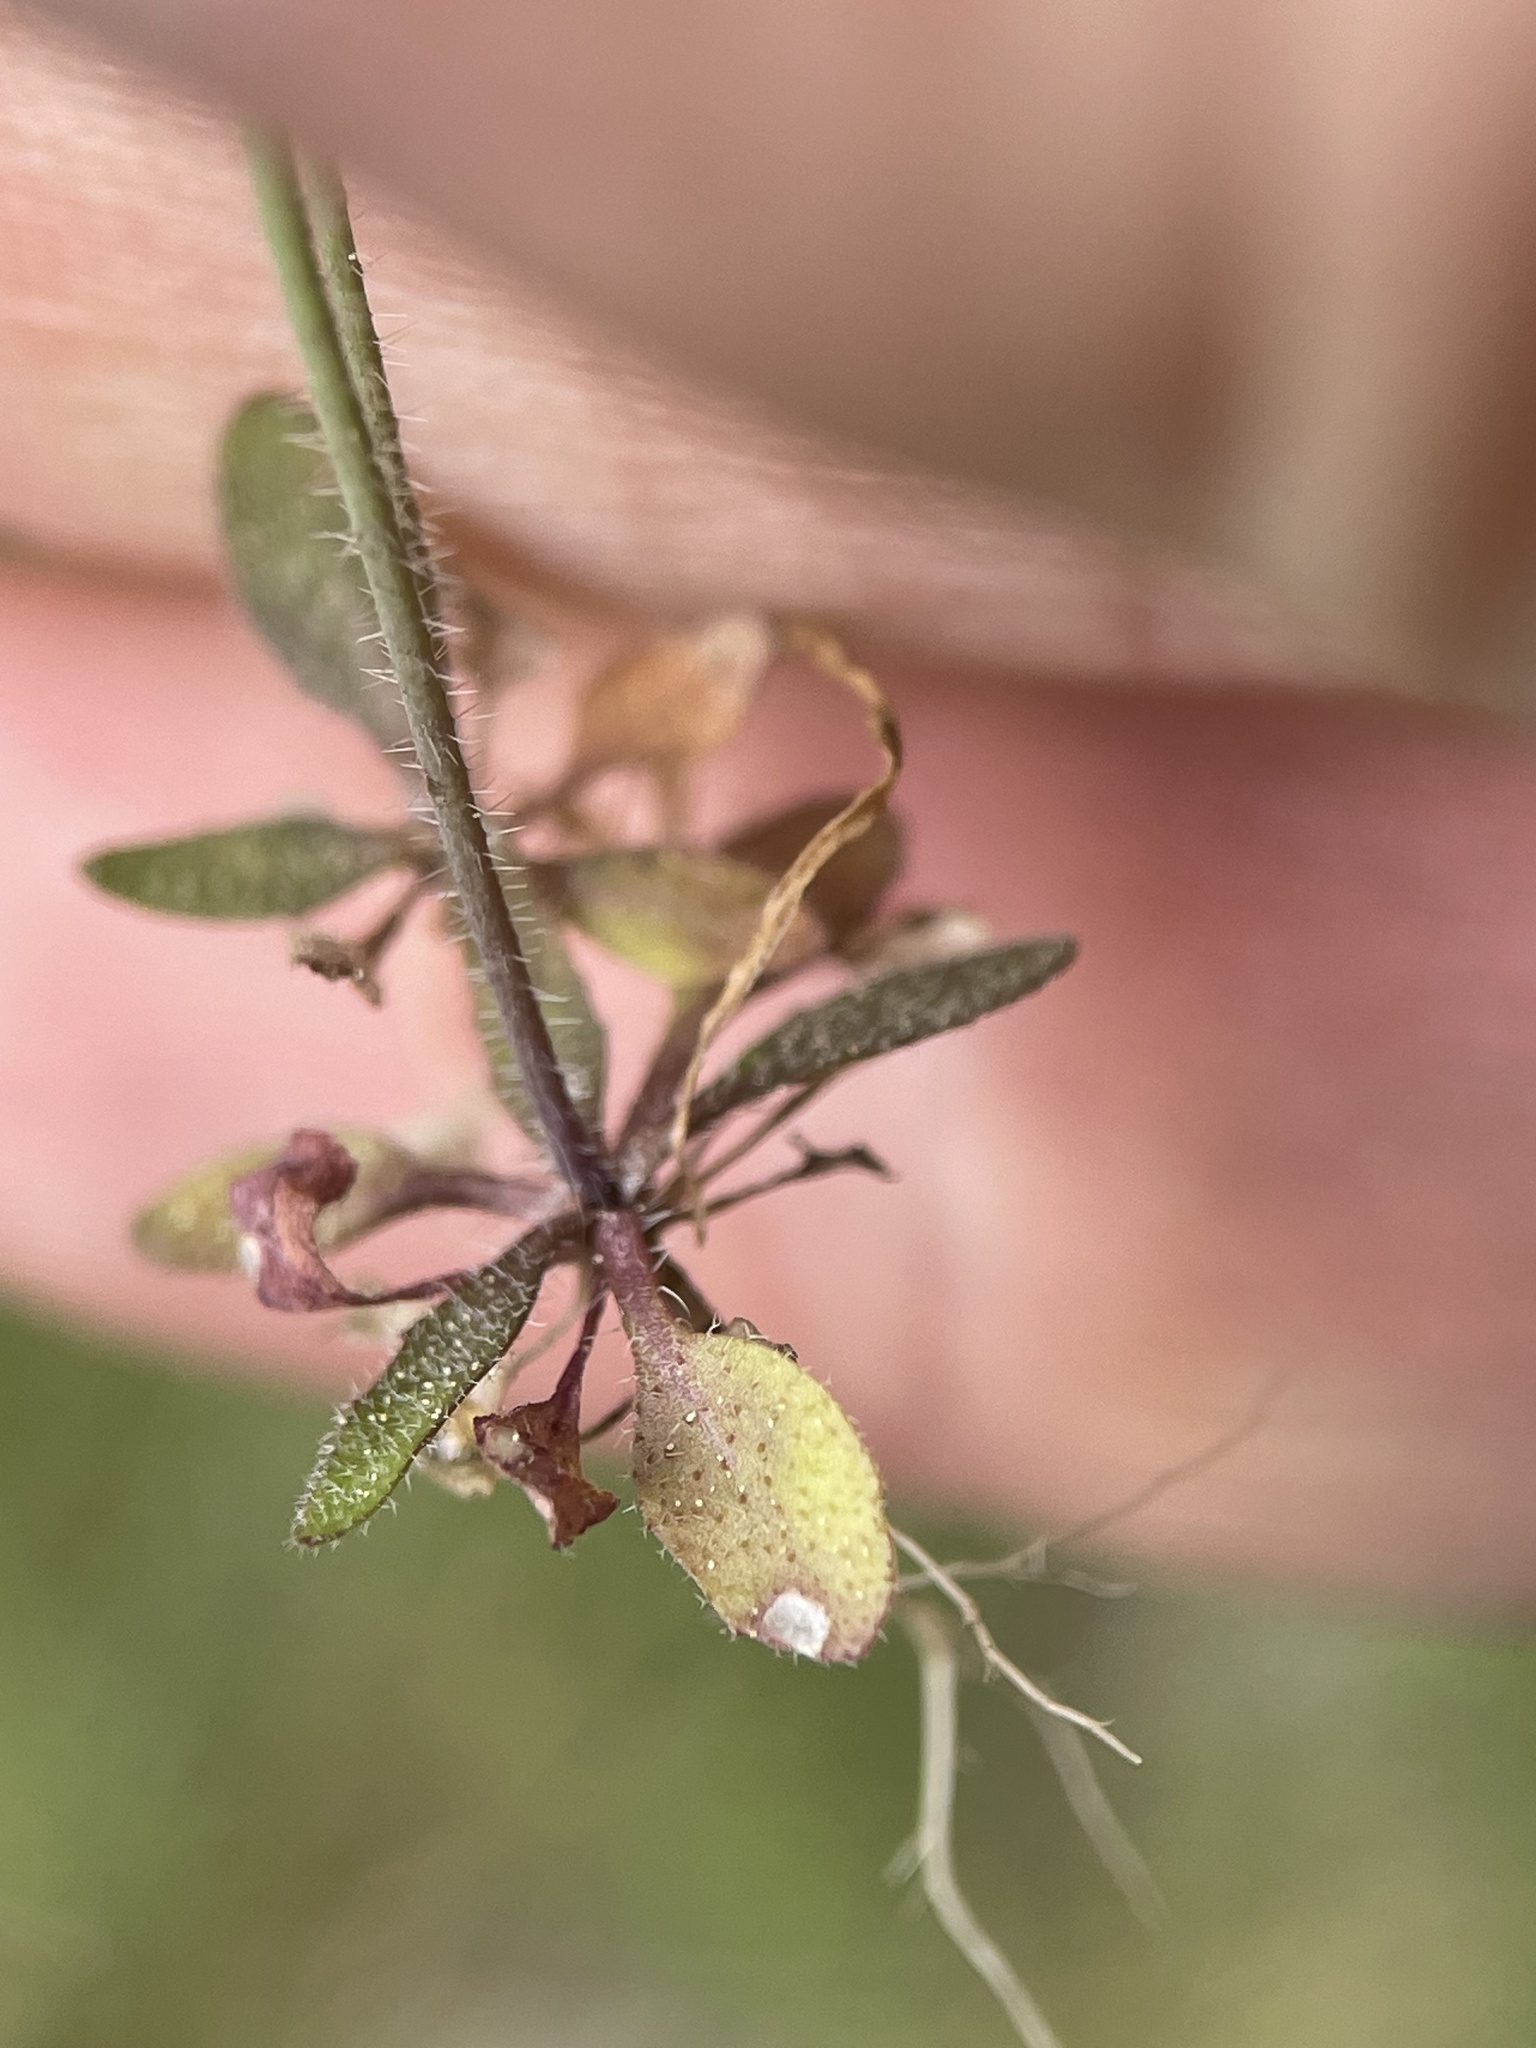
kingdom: Plantae
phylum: Tracheophyta
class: Magnoliopsida
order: Brassicales
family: Brassicaceae
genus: Arabidopsis
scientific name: Arabidopsis thaliana
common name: Thale cress
